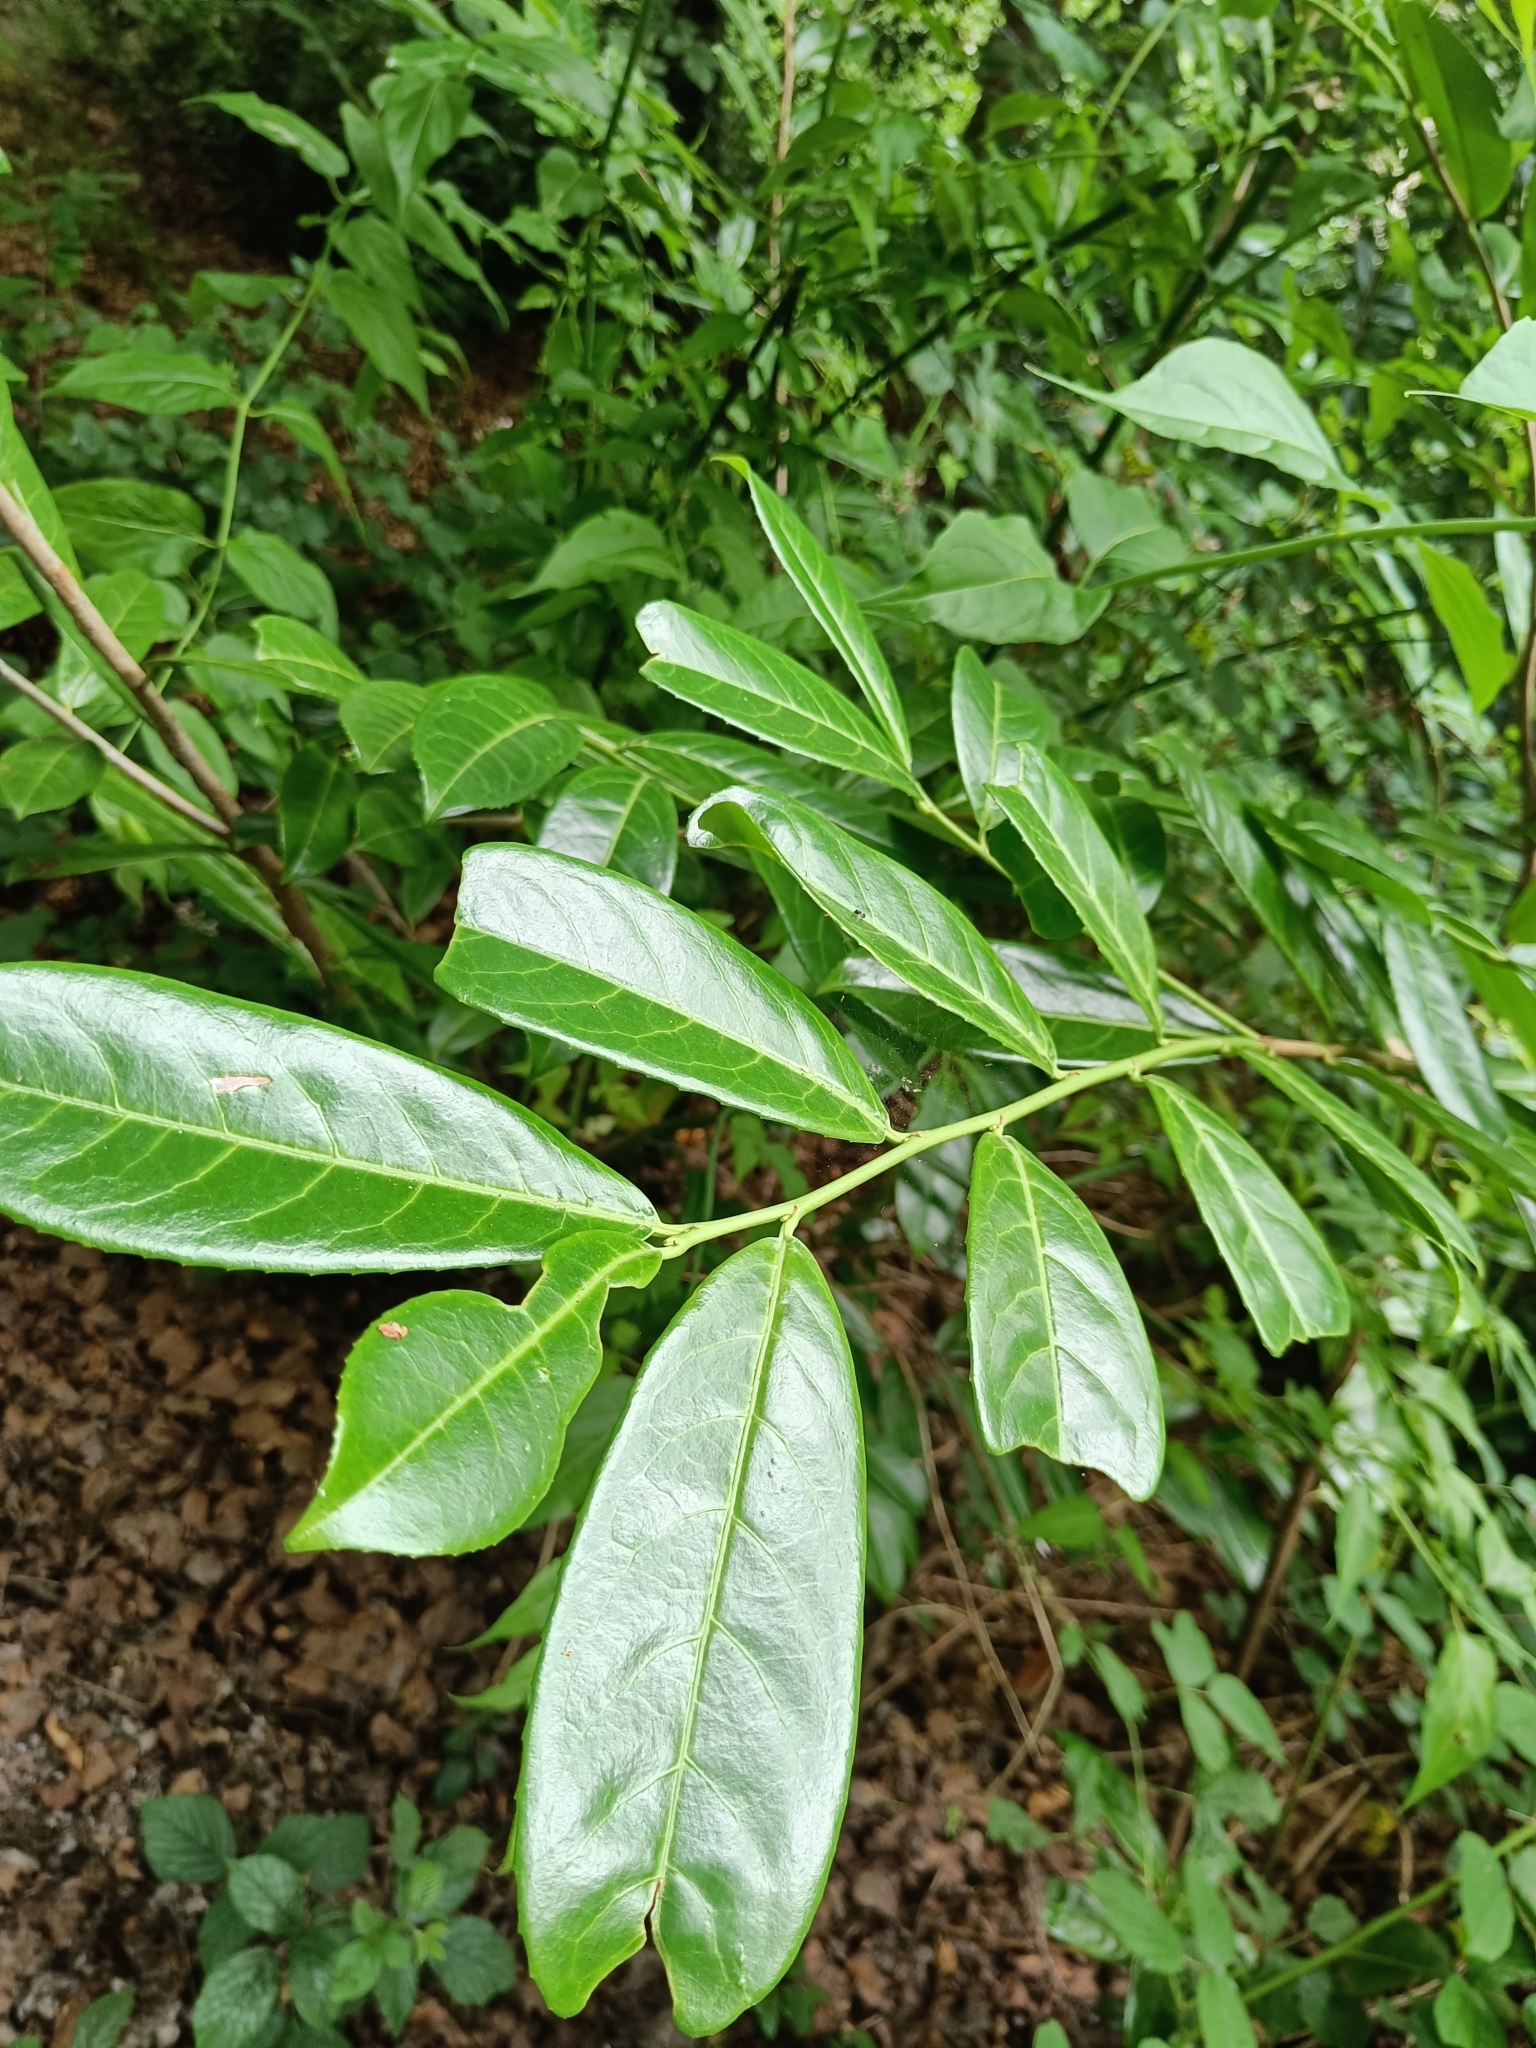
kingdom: Plantae
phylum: Tracheophyta
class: Magnoliopsida
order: Rosales
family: Rosaceae
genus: Prunus
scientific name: Prunus laurocerasus
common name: Cherry laurel
